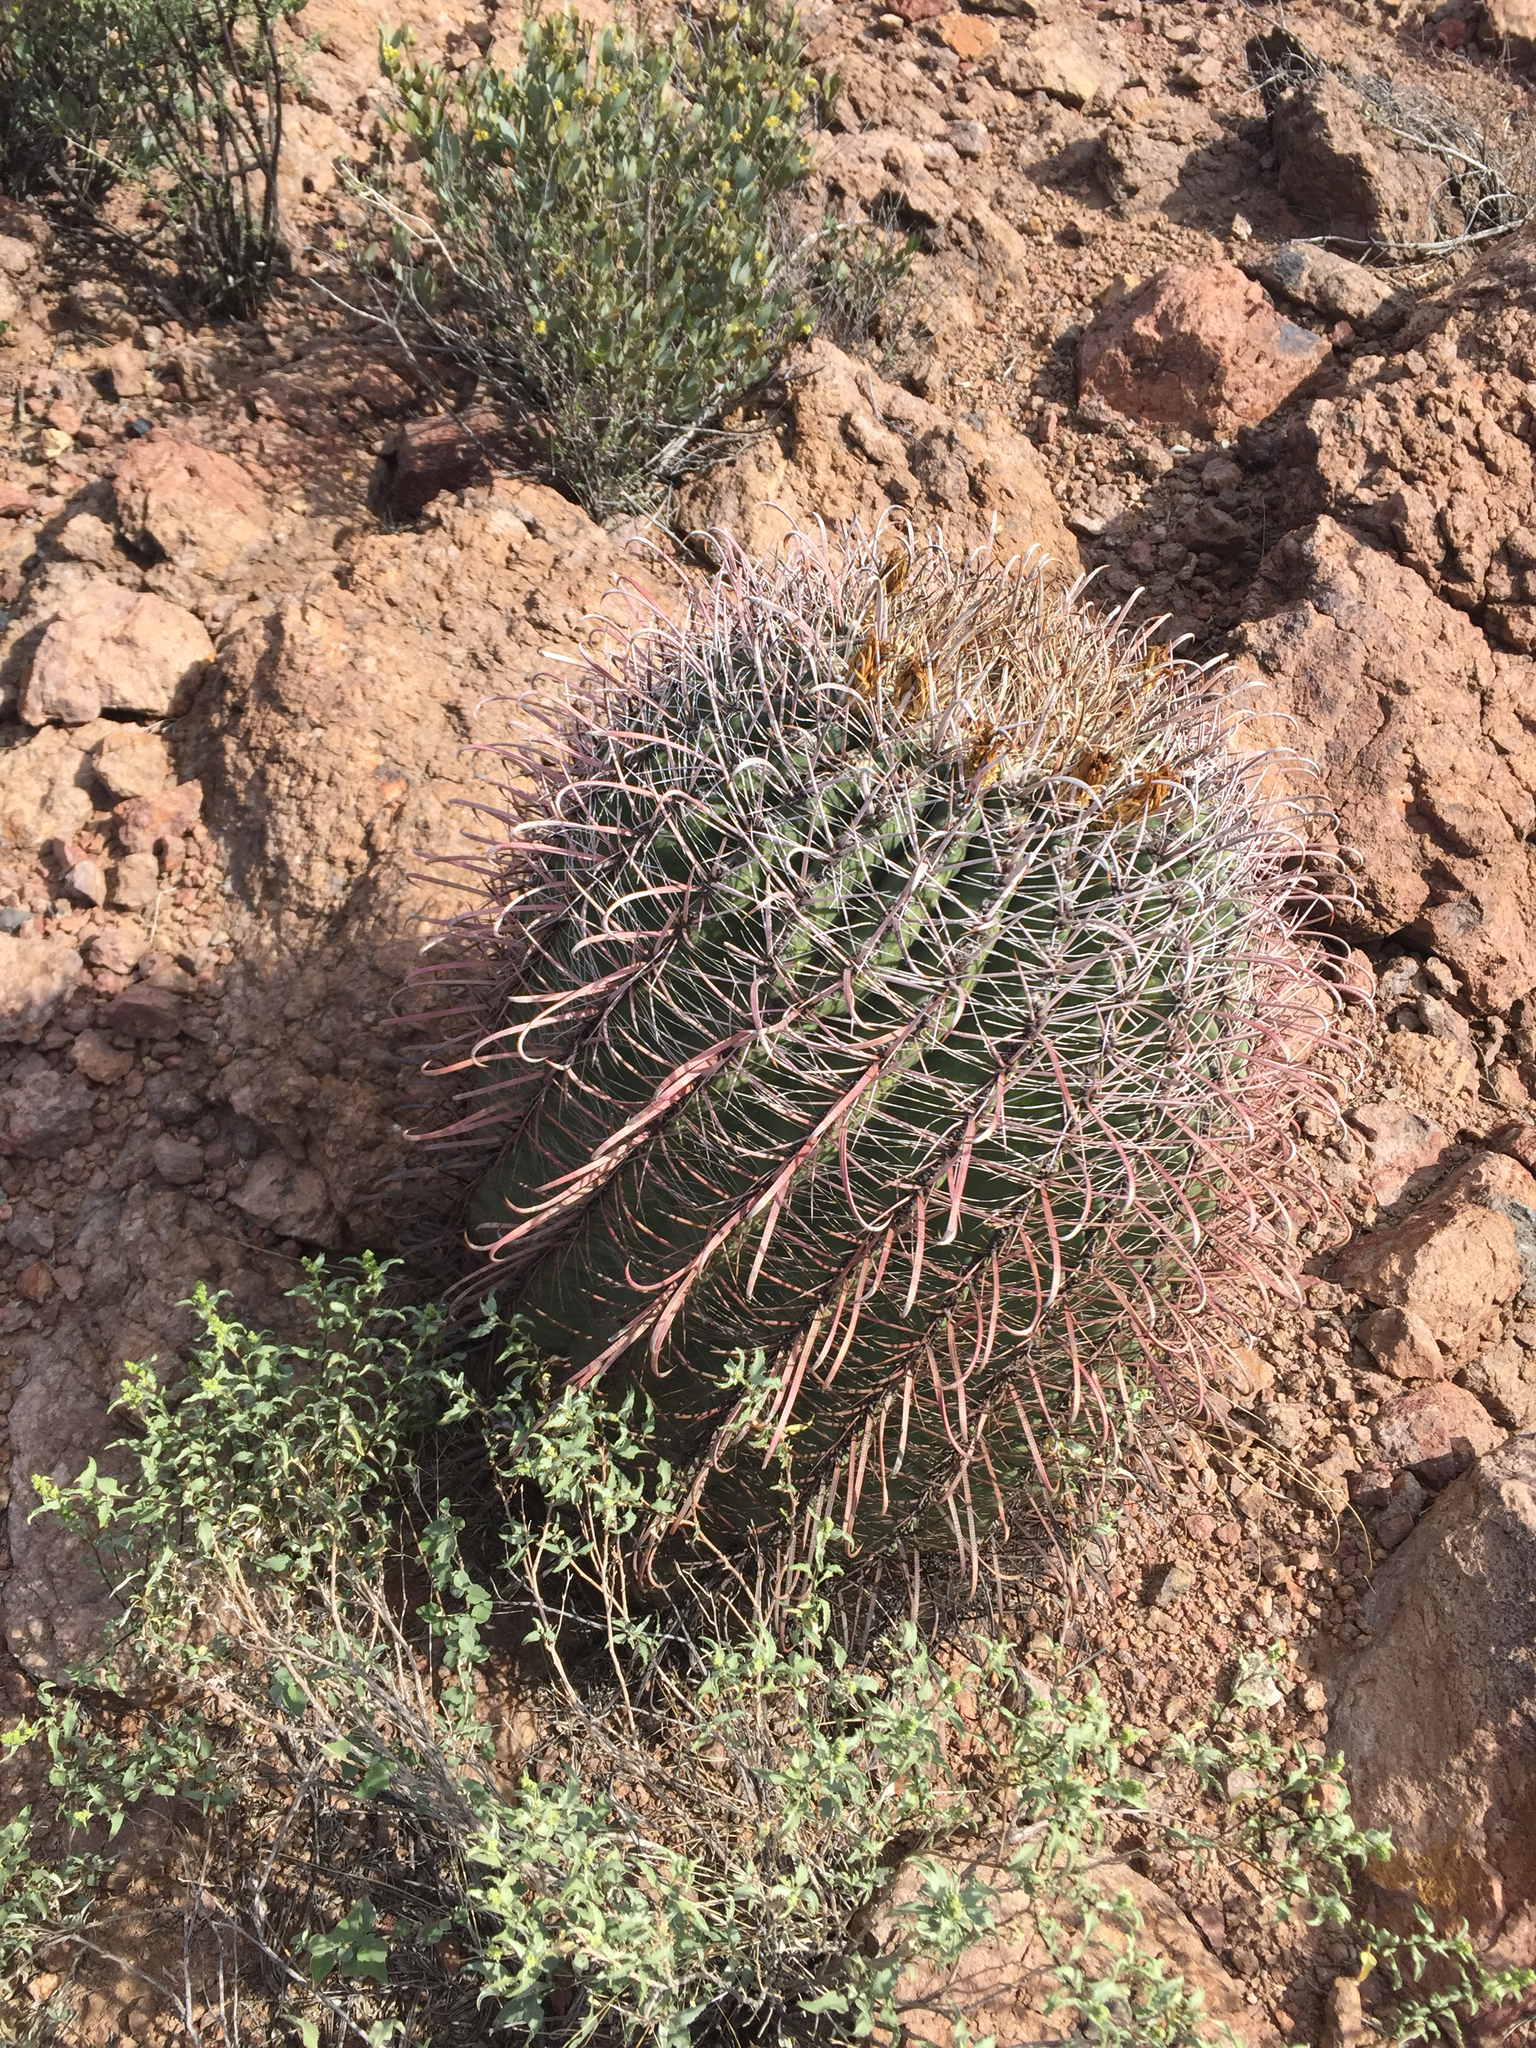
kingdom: Plantae
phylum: Tracheophyta
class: Magnoliopsida
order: Caryophyllales
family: Cactaceae
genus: Ferocactus
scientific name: Ferocactus wislizeni
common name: Candy barrel cactus
